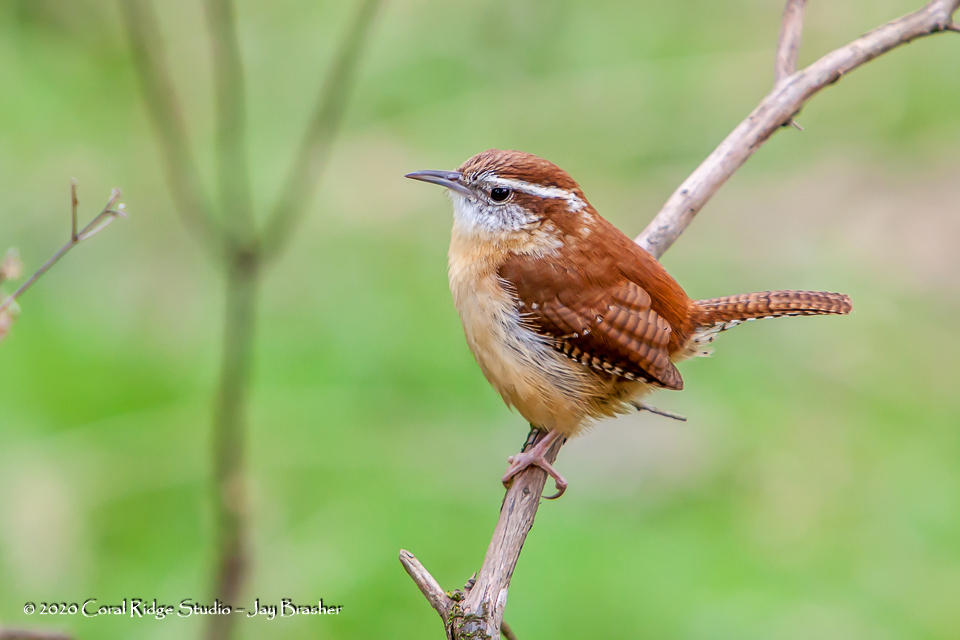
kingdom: Animalia
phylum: Chordata
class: Aves
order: Passeriformes
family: Troglodytidae
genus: Thryothorus
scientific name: Thryothorus ludovicianus
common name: Carolina wren
